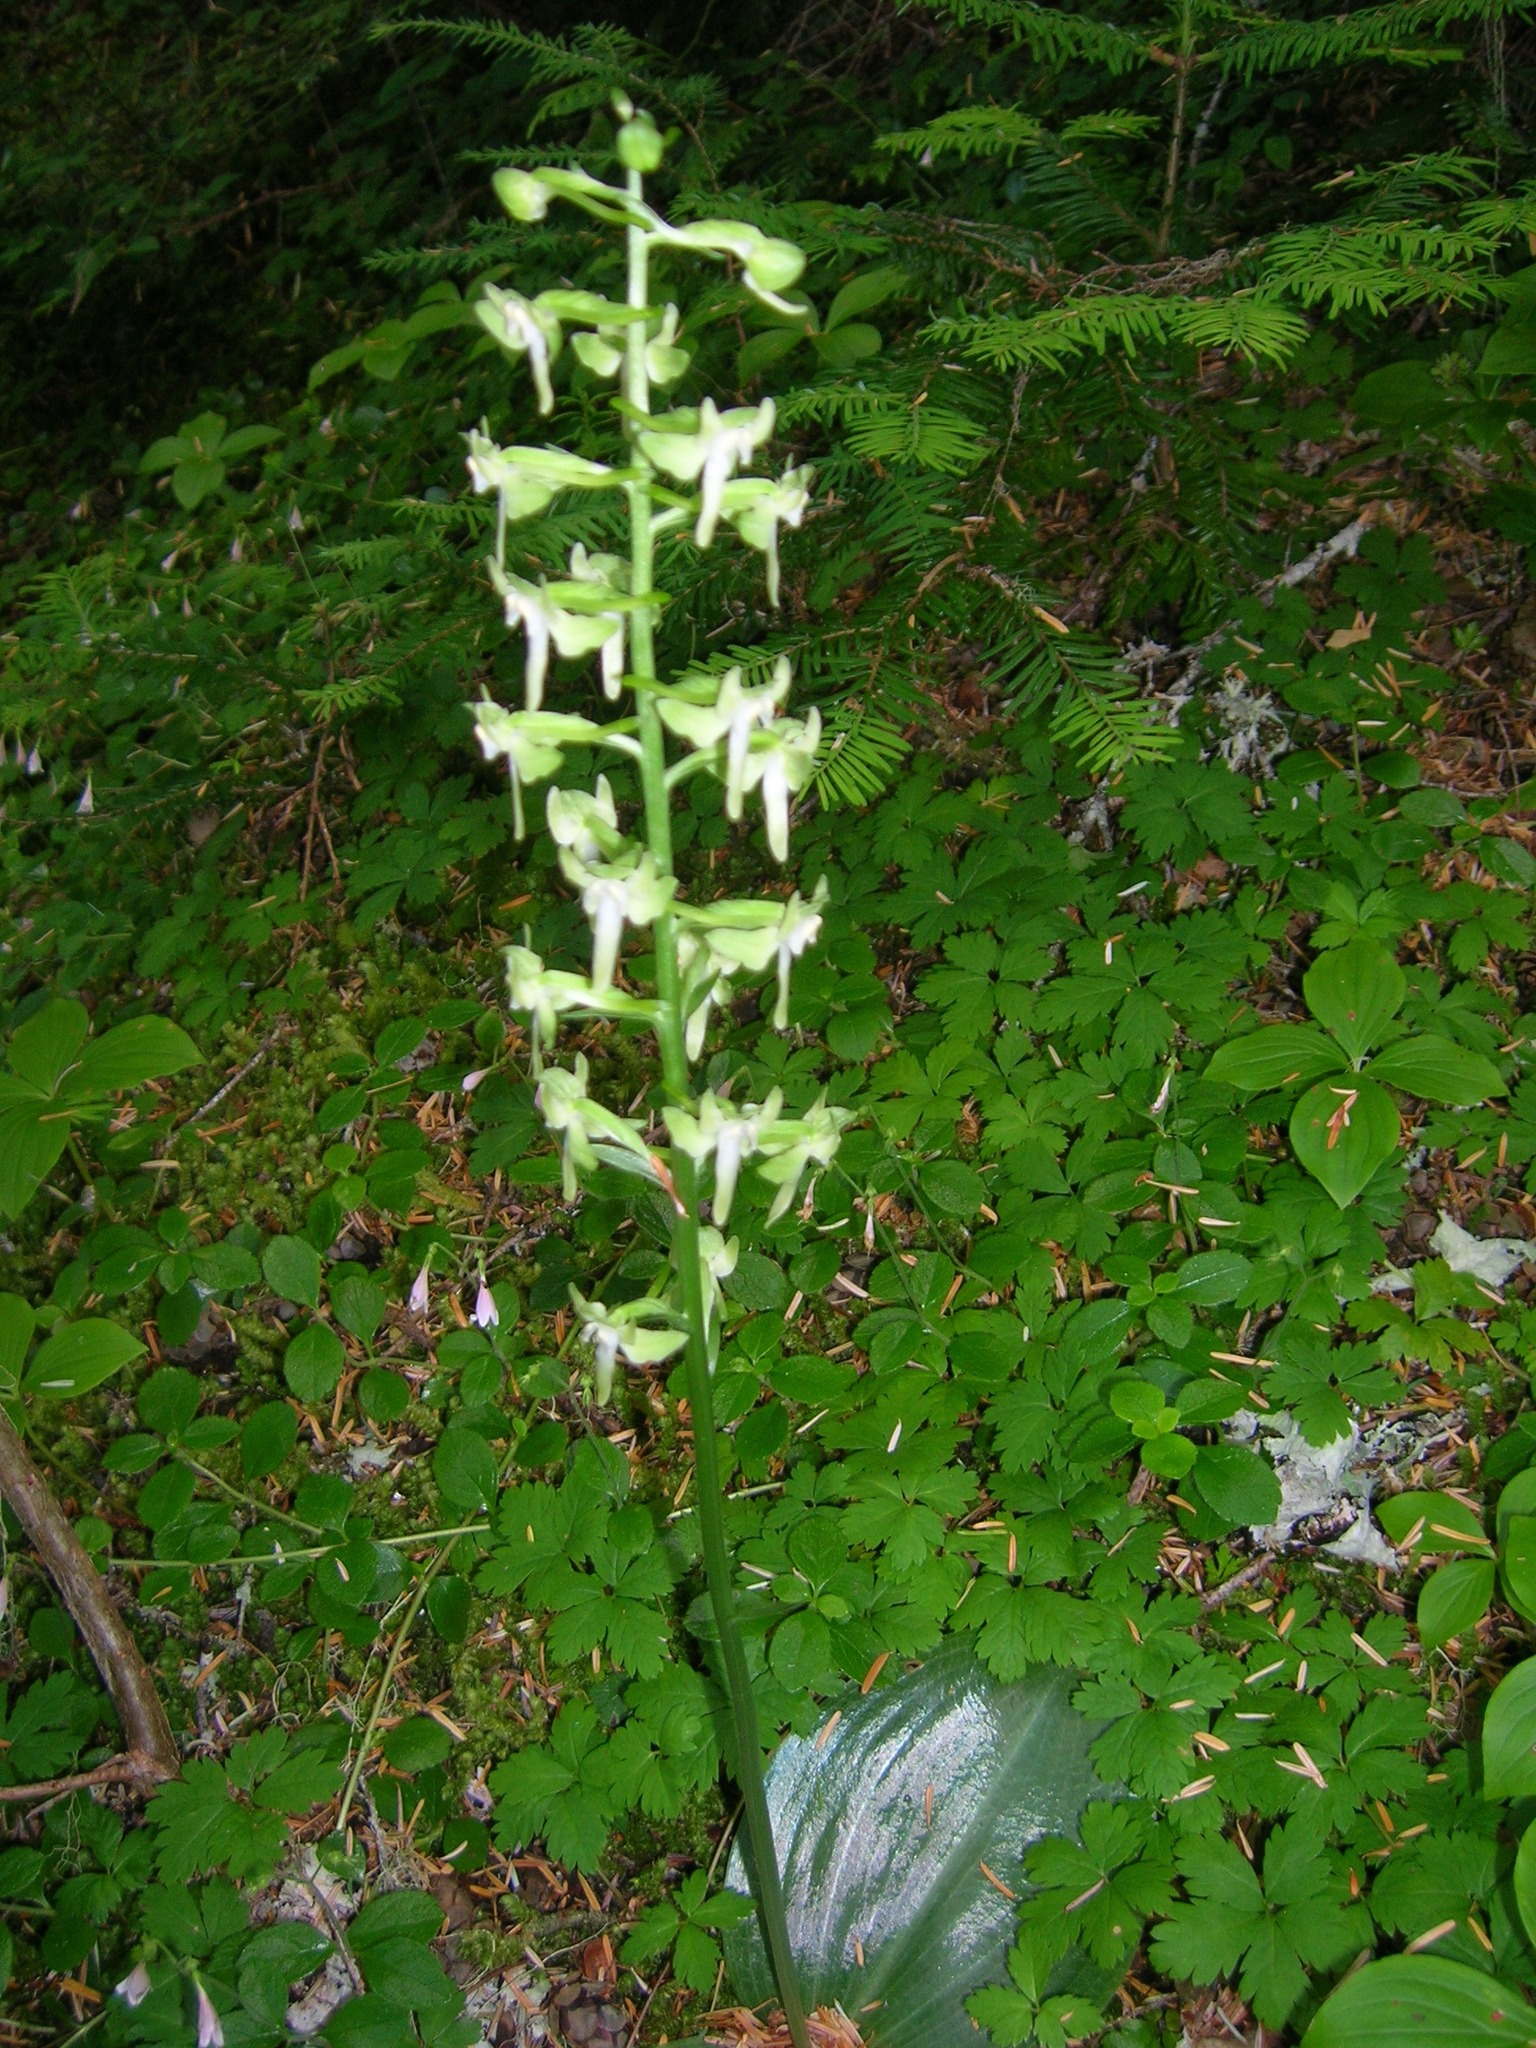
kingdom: Plantae
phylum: Tracheophyta
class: Liliopsida
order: Asparagales
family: Orchidaceae
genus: Platanthera
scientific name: Platanthera orbiculata
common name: Large round-leaved orchid
